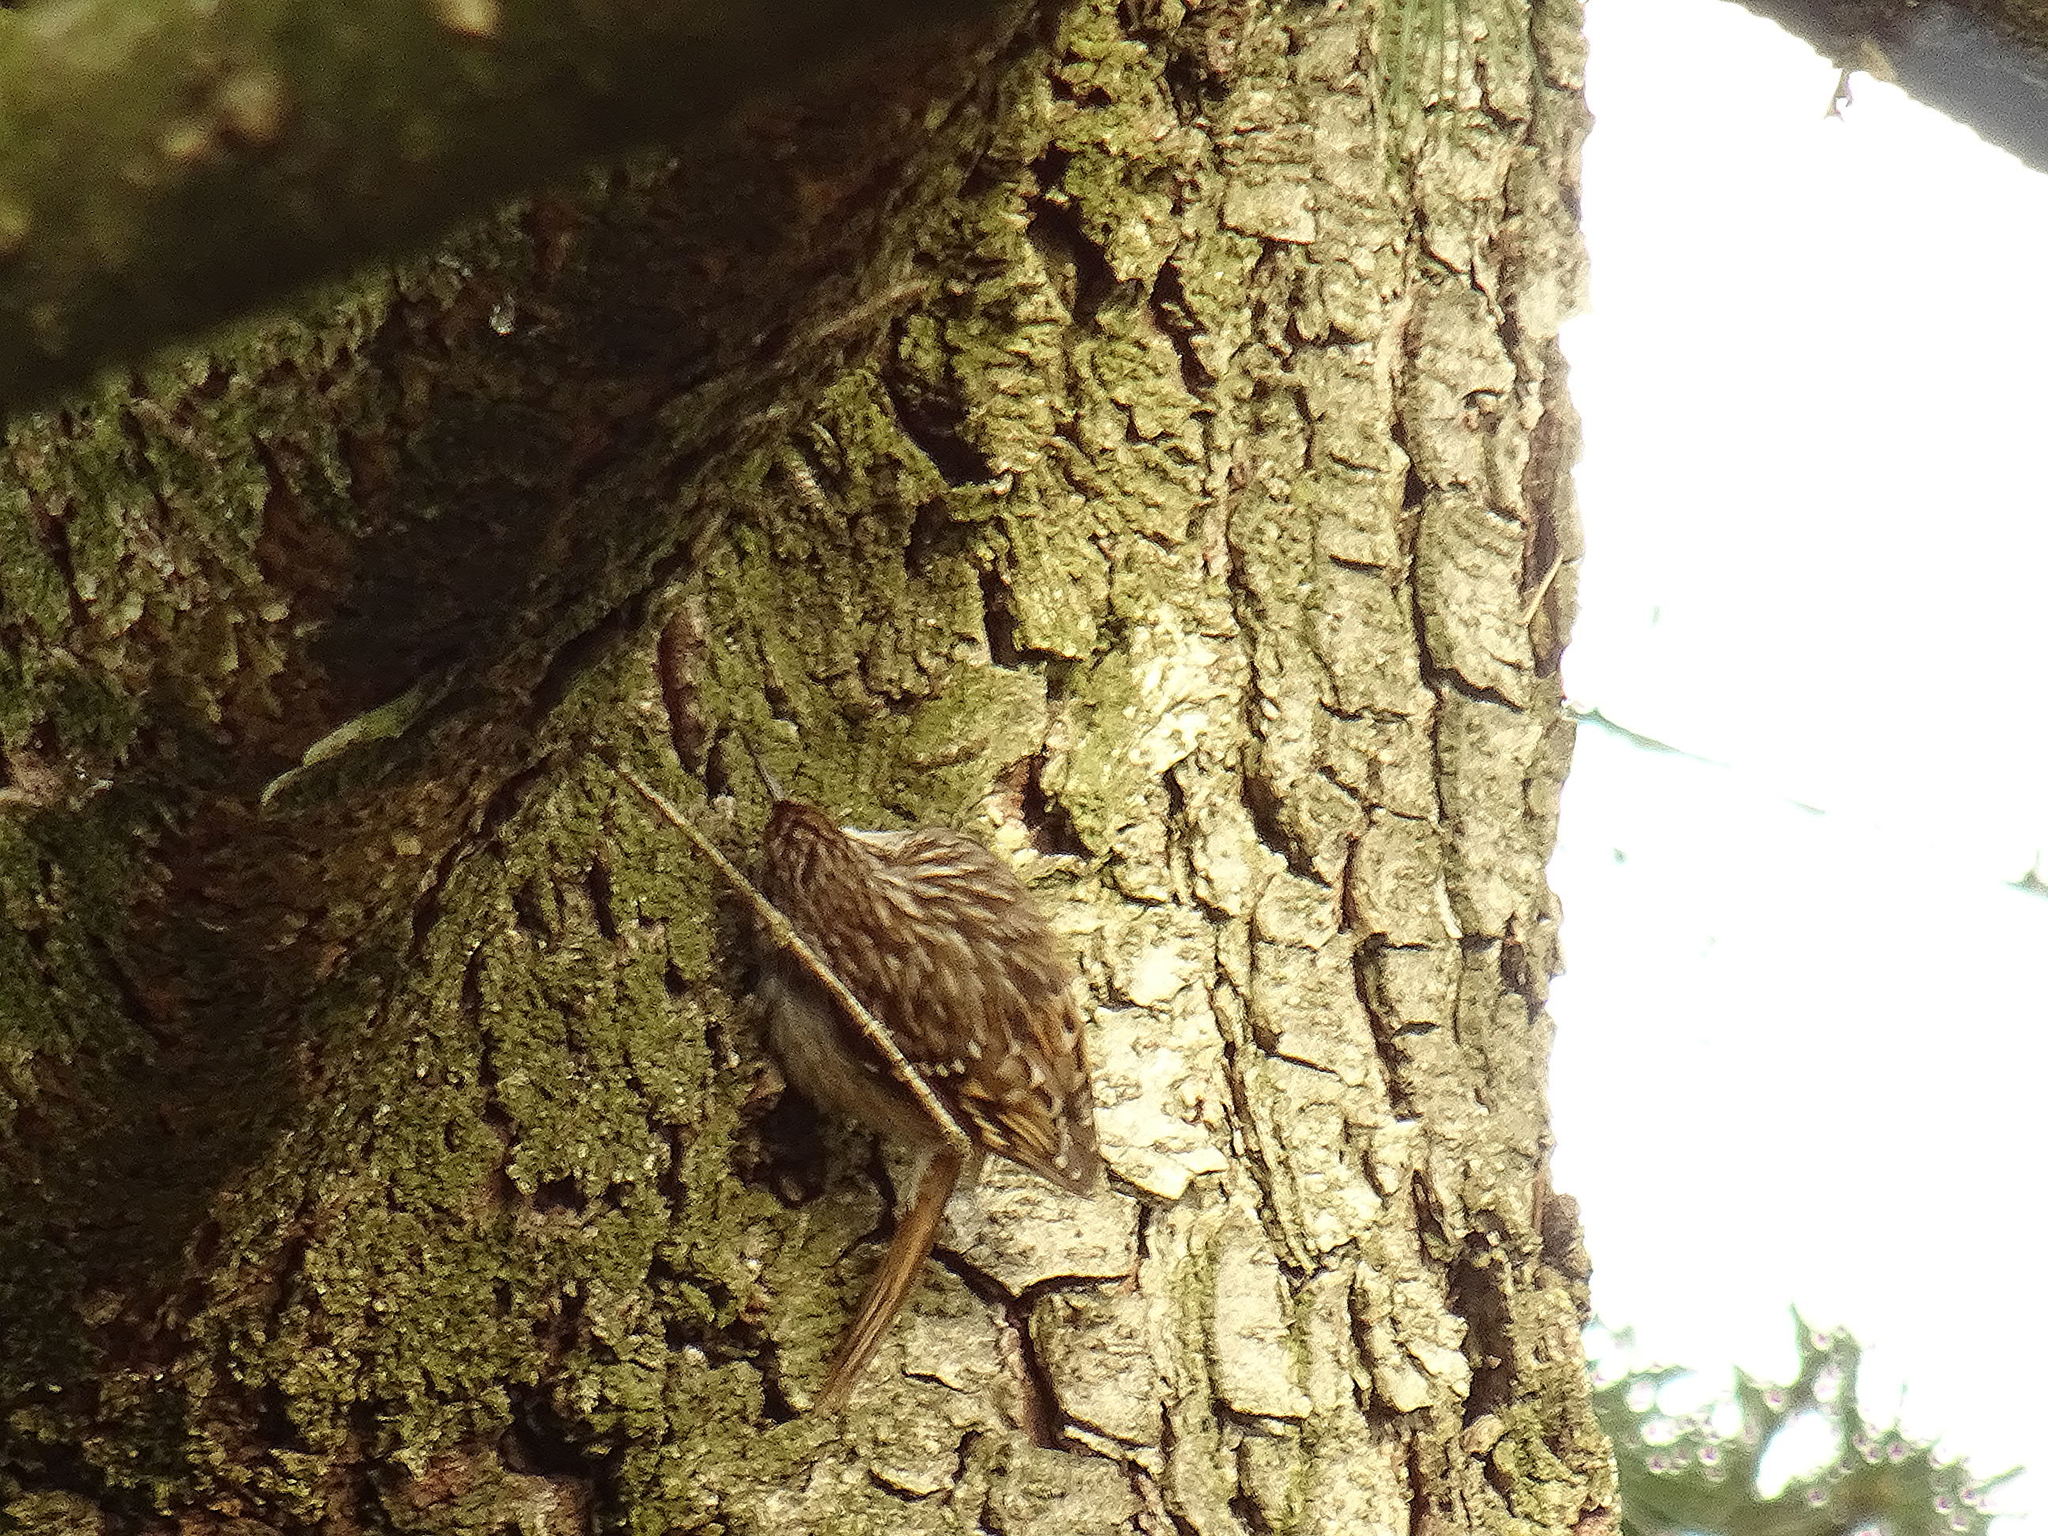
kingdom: Animalia
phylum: Chordata
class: Aves
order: Passeriformes
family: Certhiidae
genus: Certhia
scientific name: Certhia brachydactyla
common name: Short-toed treecreeper
